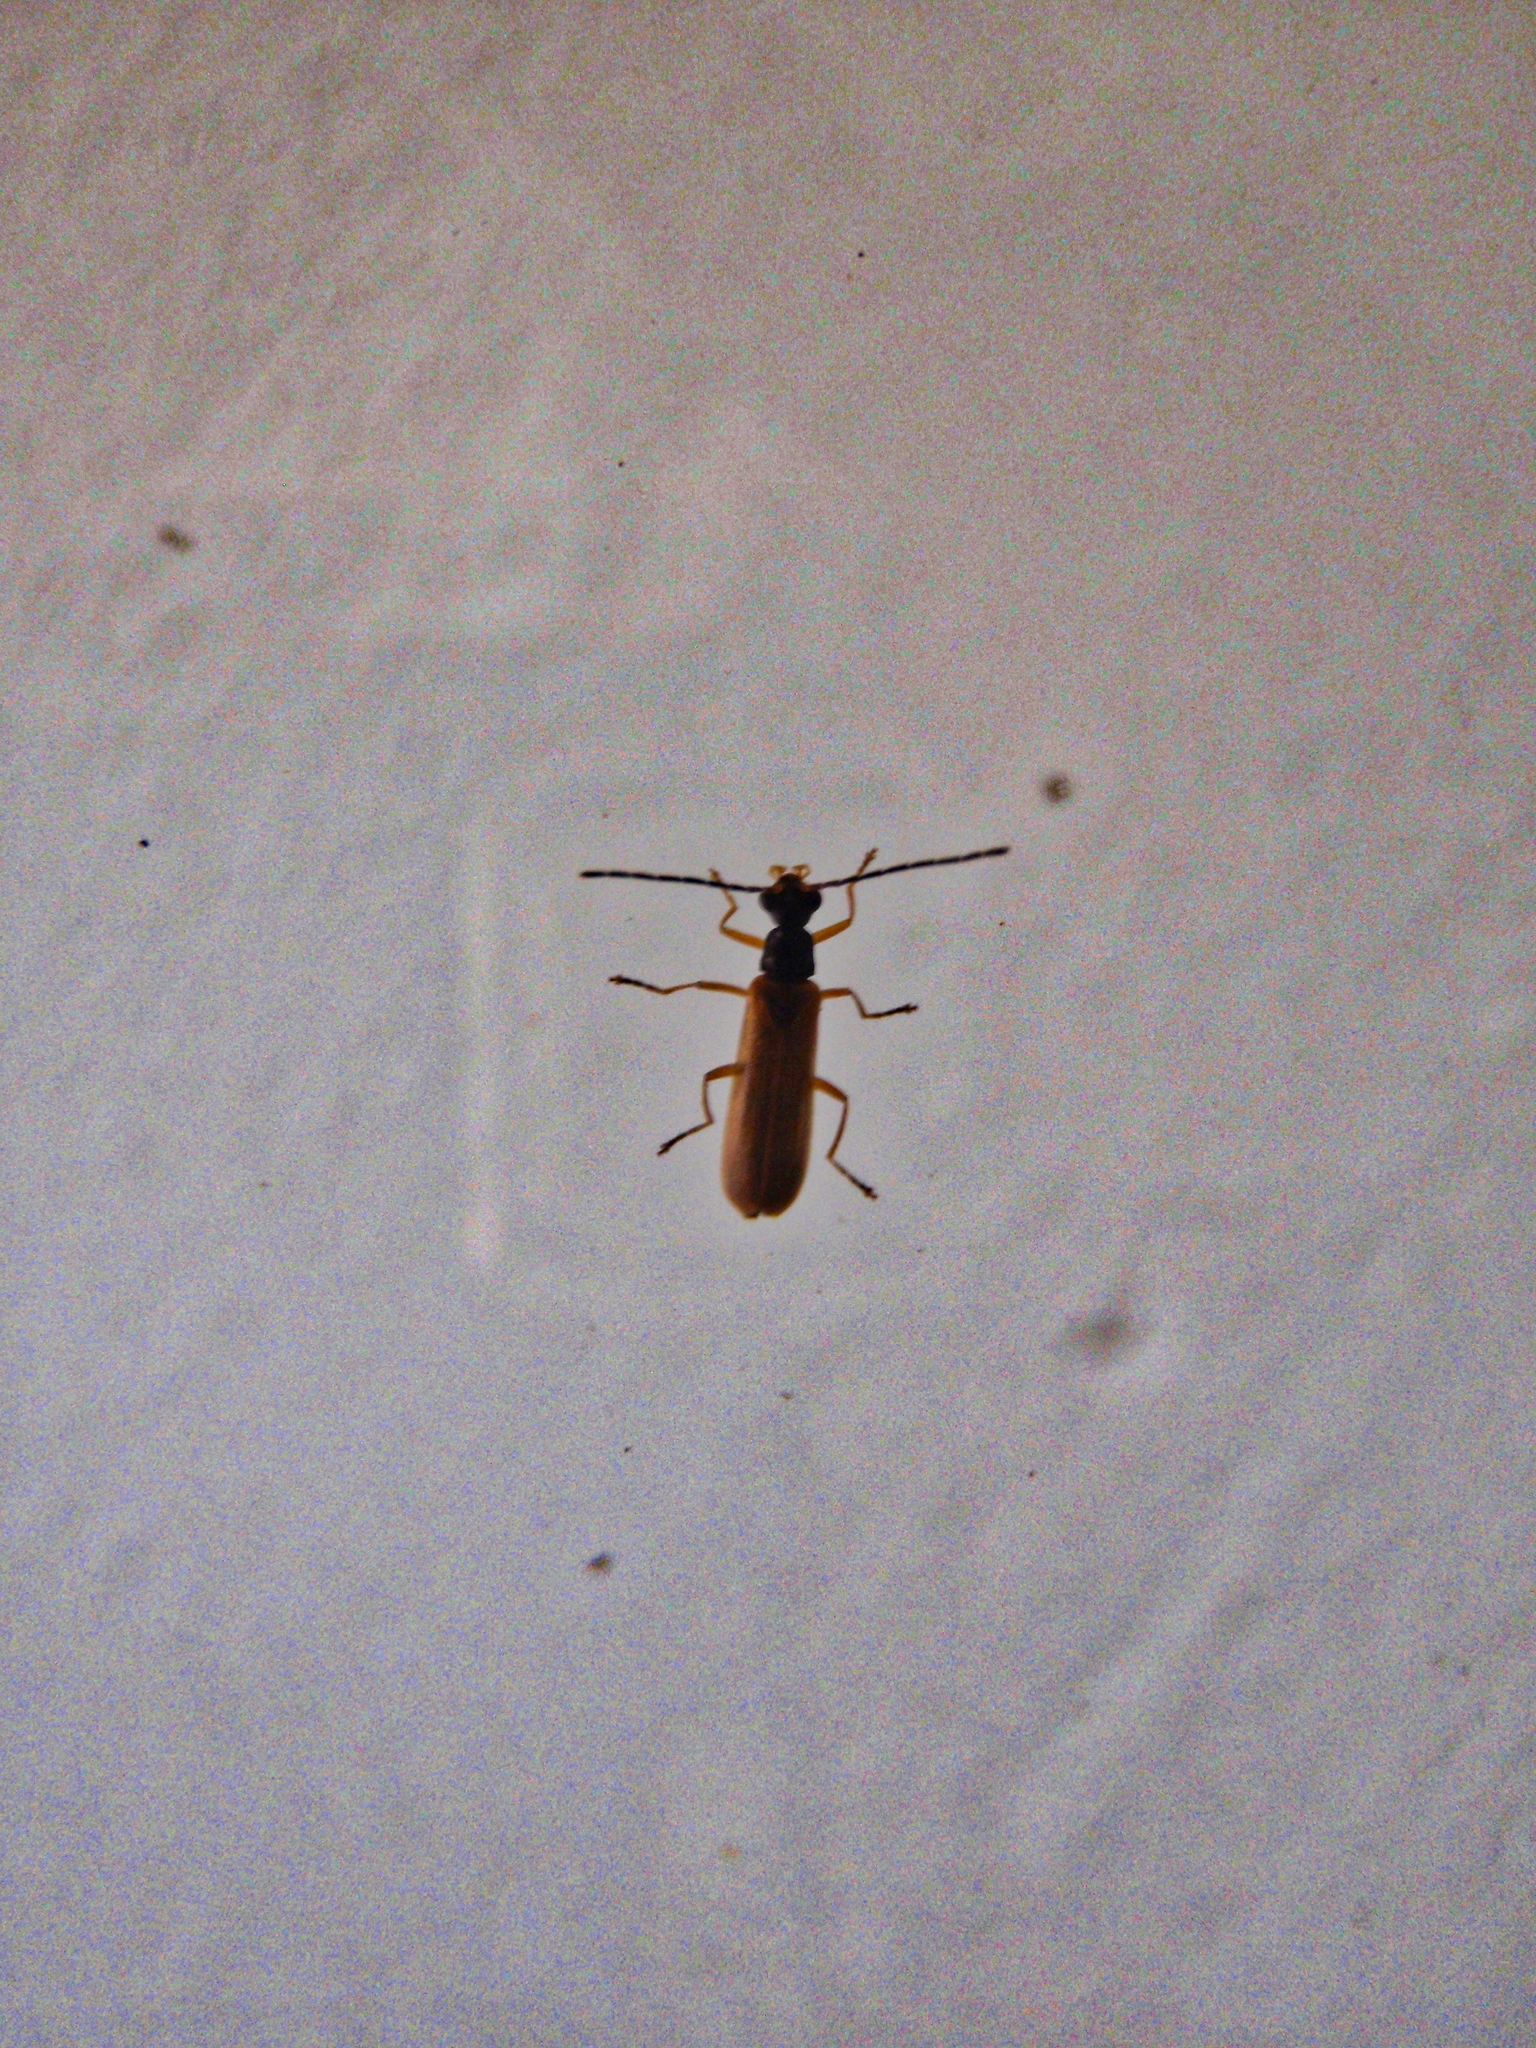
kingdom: Animalia
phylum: Arthropoda
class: Insecta
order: Coleoptera
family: Cantharidae
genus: Rhagonycha
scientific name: Rhagonycha lignosa
